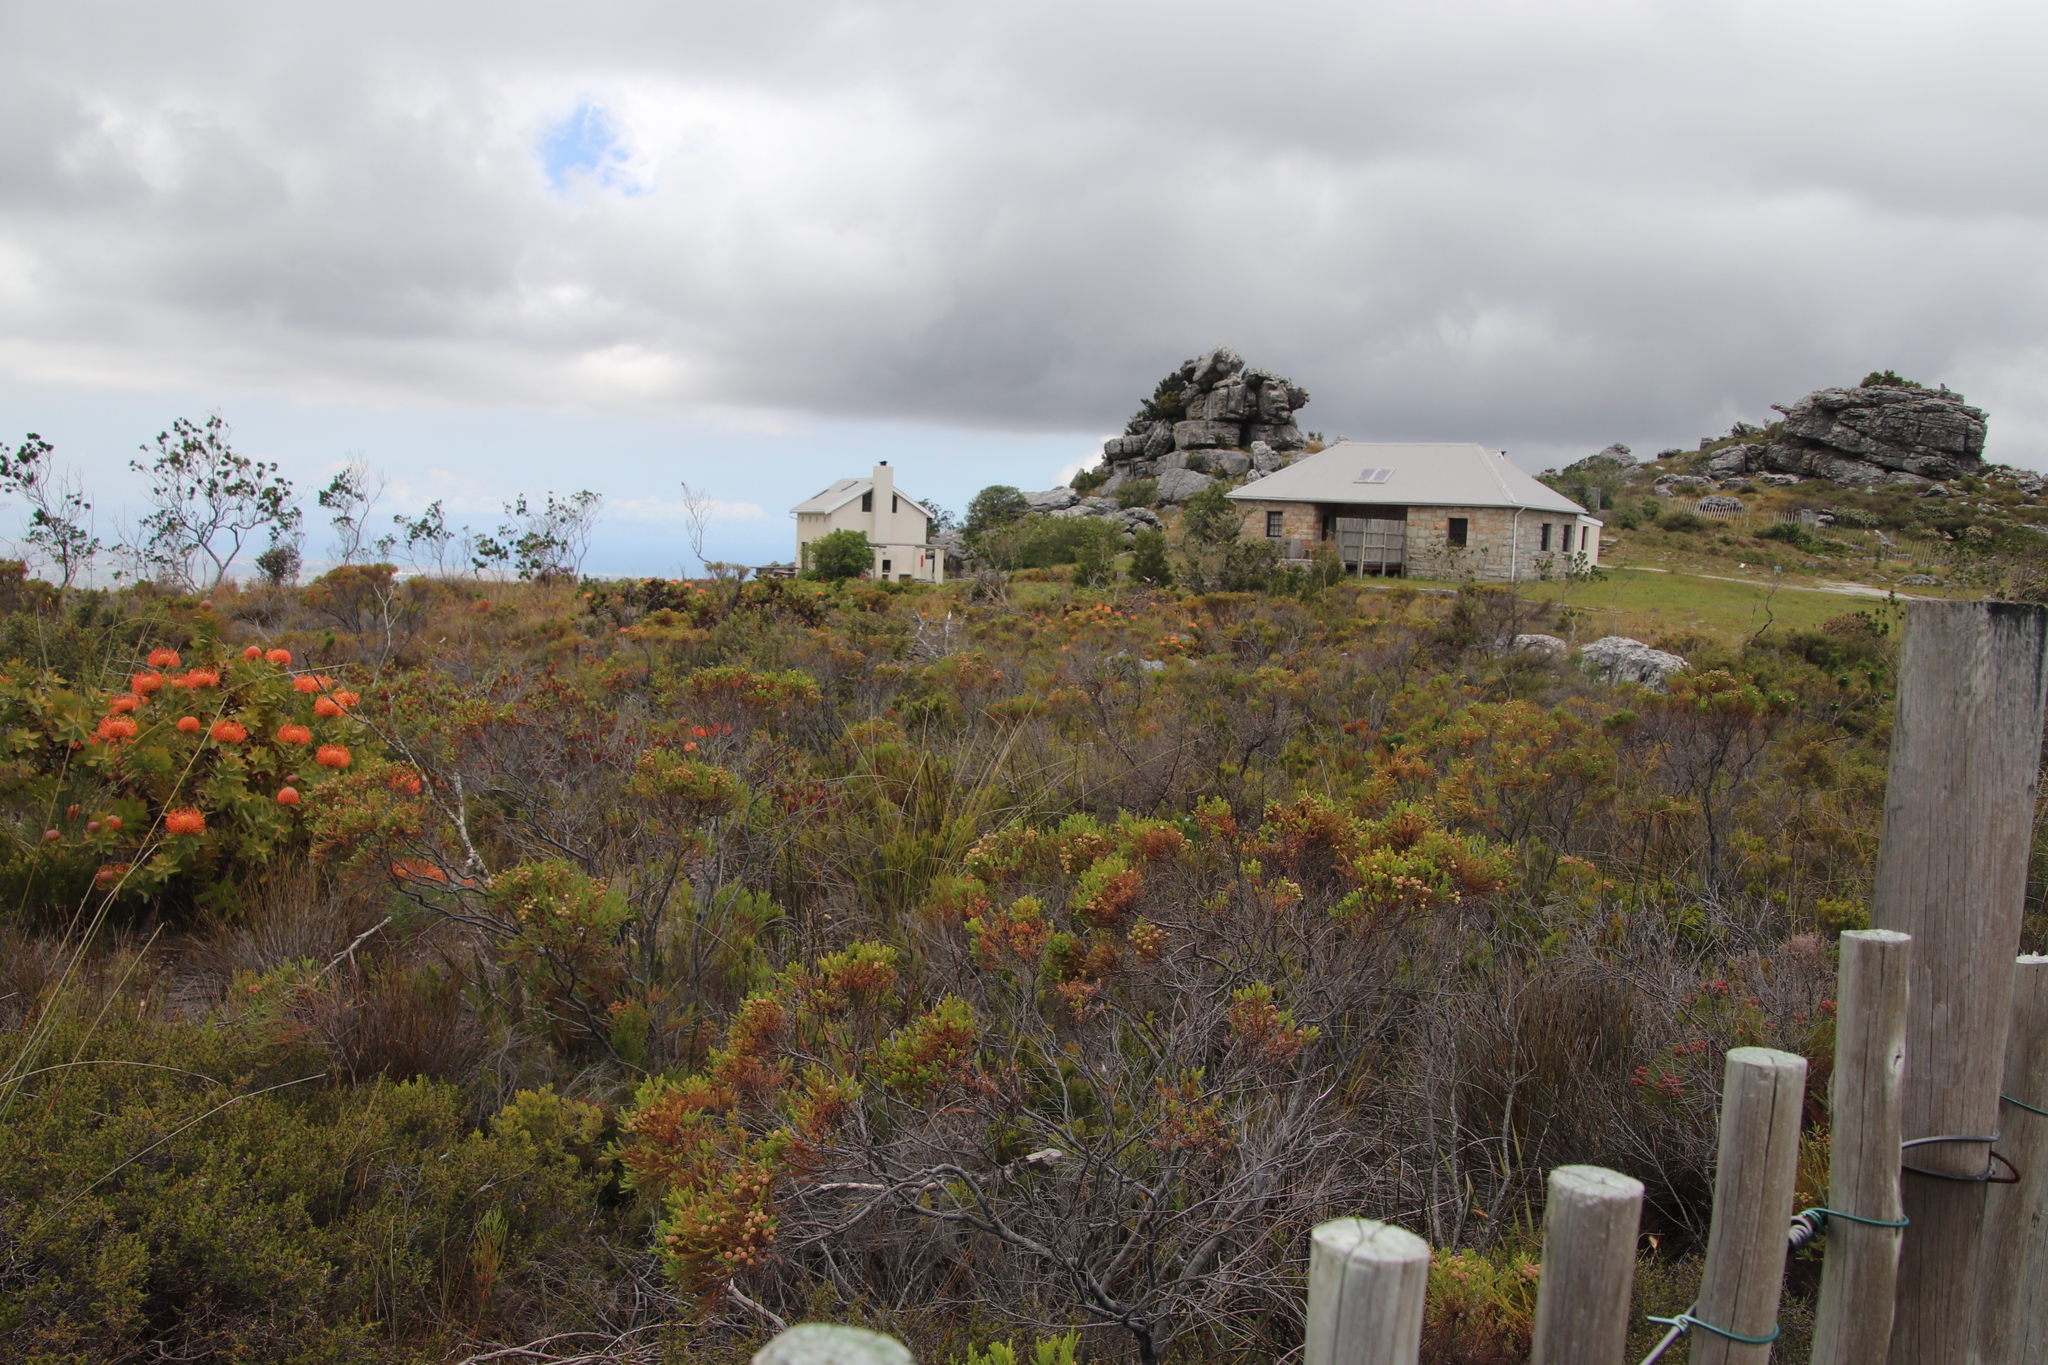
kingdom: Plantae
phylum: Tracheophyta
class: Magnoliopsida
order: Bruniales
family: Bruniaceae
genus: Berzelia
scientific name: Berzelia lanuginosa
